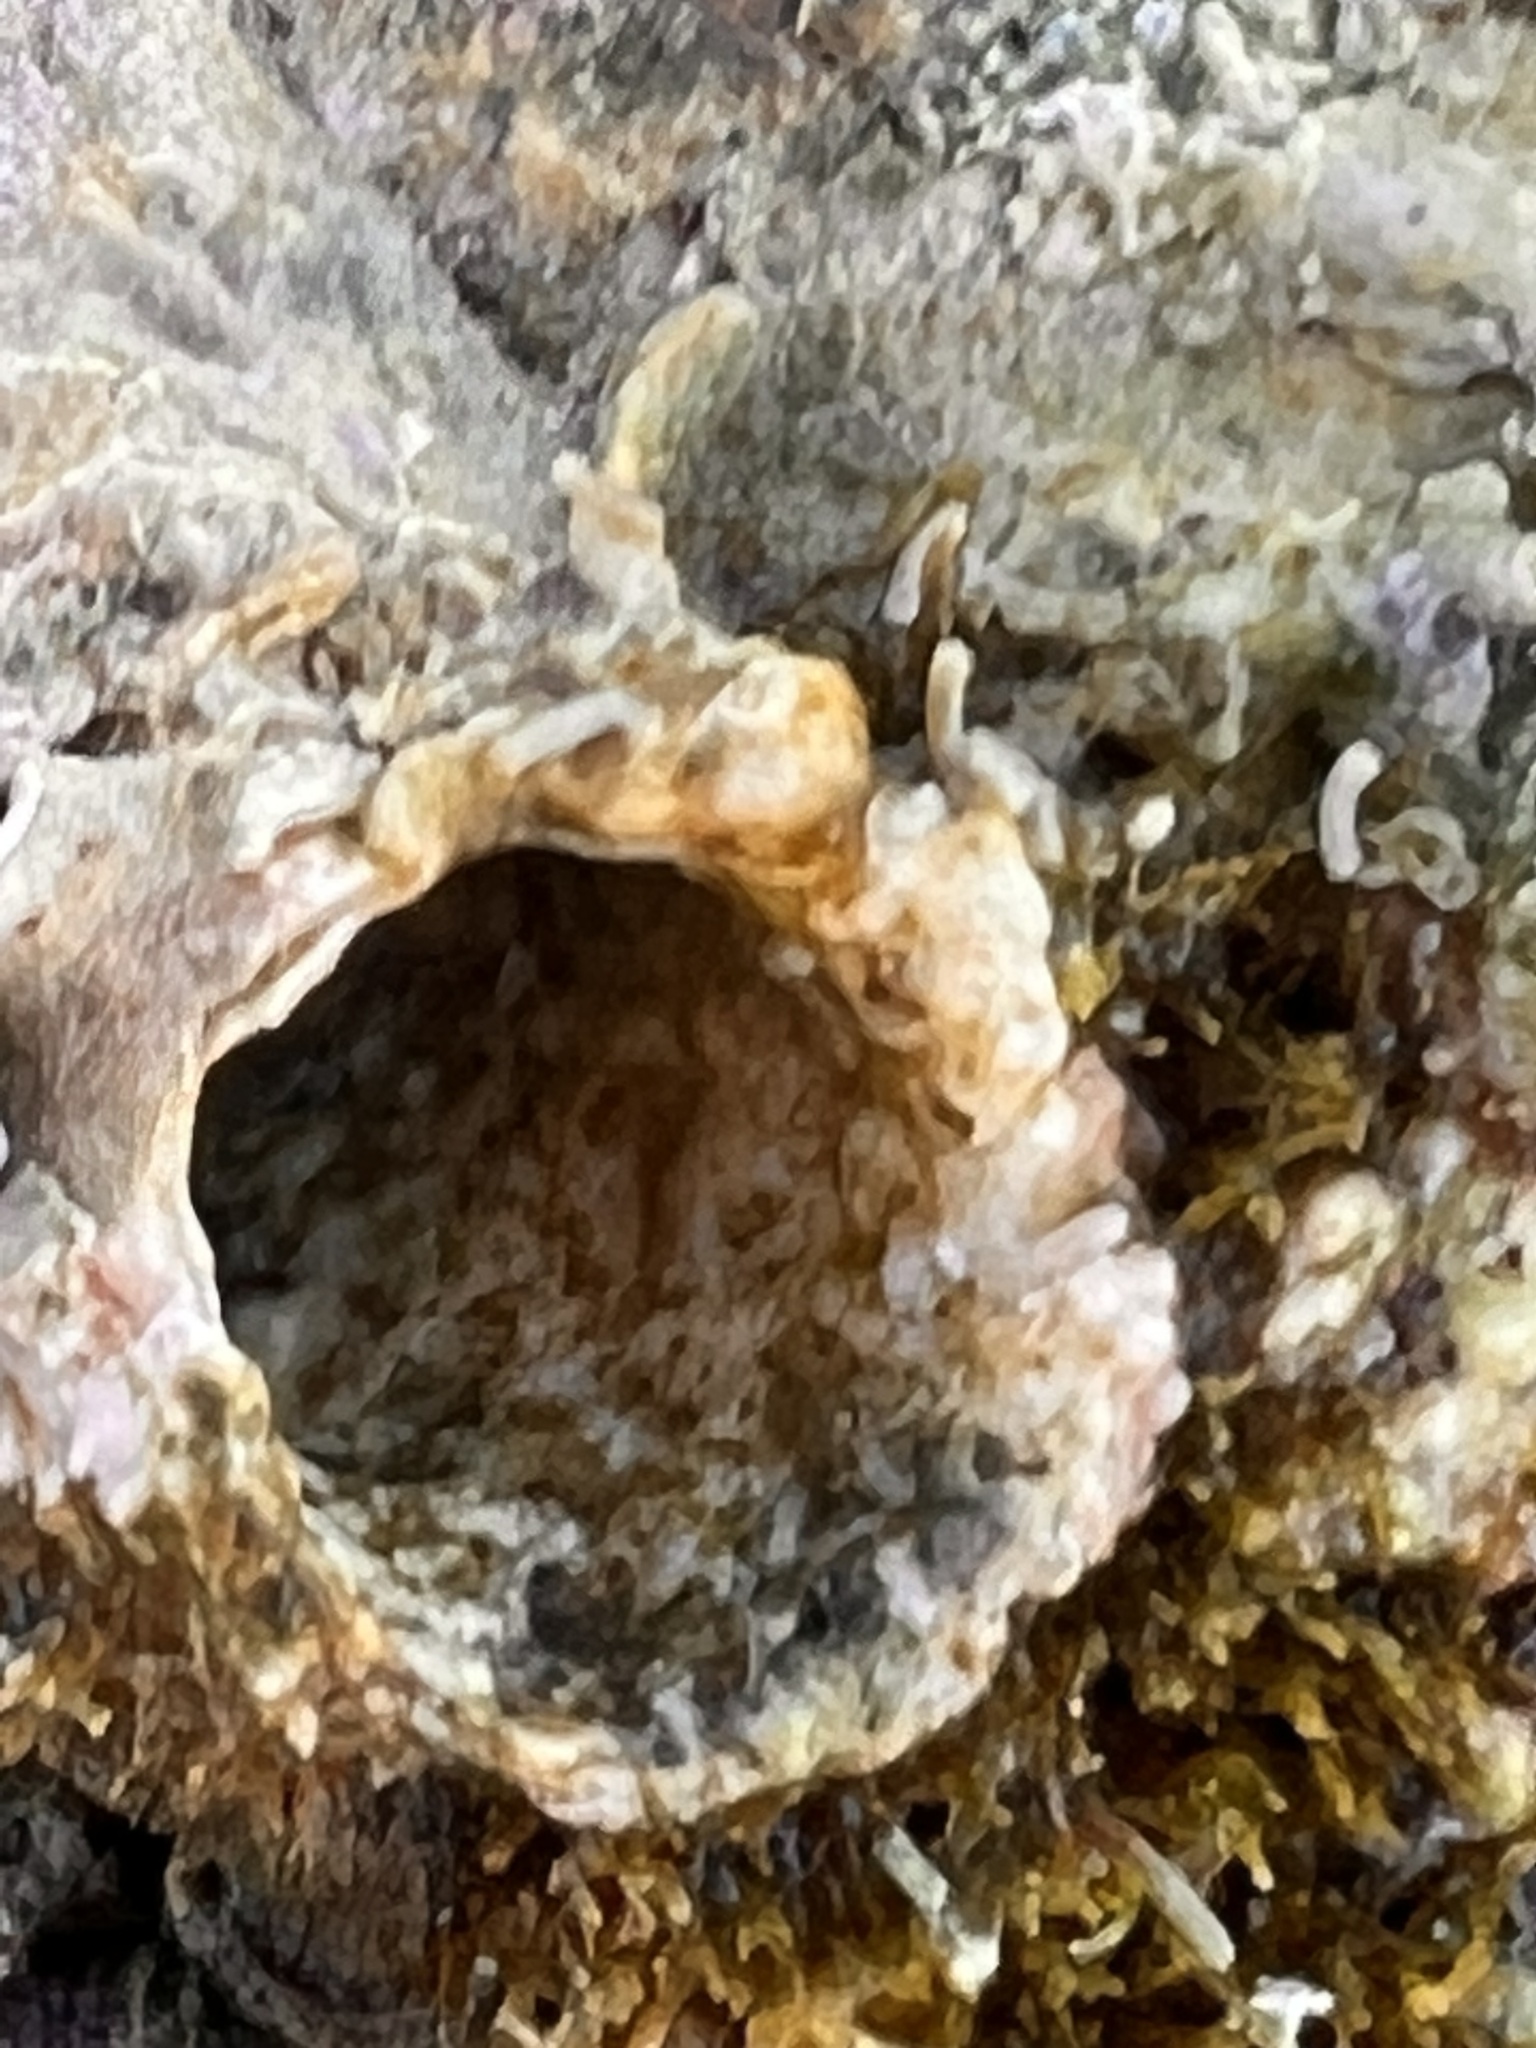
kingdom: Animalia
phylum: Mollusca
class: Gastropoda
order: Littorinimorpha
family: Vermetidae
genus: Thylacodes
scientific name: Thylacodes variabilis
